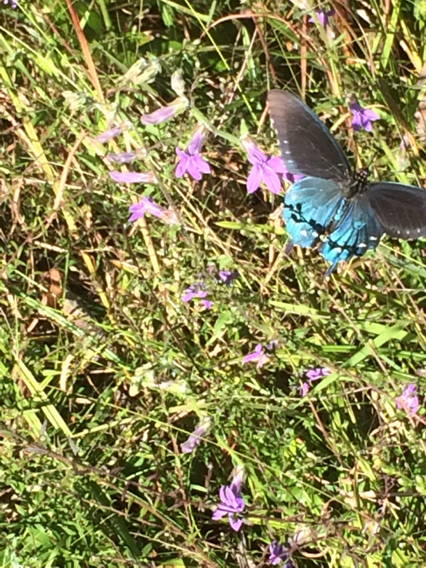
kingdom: Animalia
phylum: Arthropoda
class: Insecta
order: Lepidoptera
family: Papilionidae
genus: Battus
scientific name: Battus philenor
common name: Pipevine swallowtail
